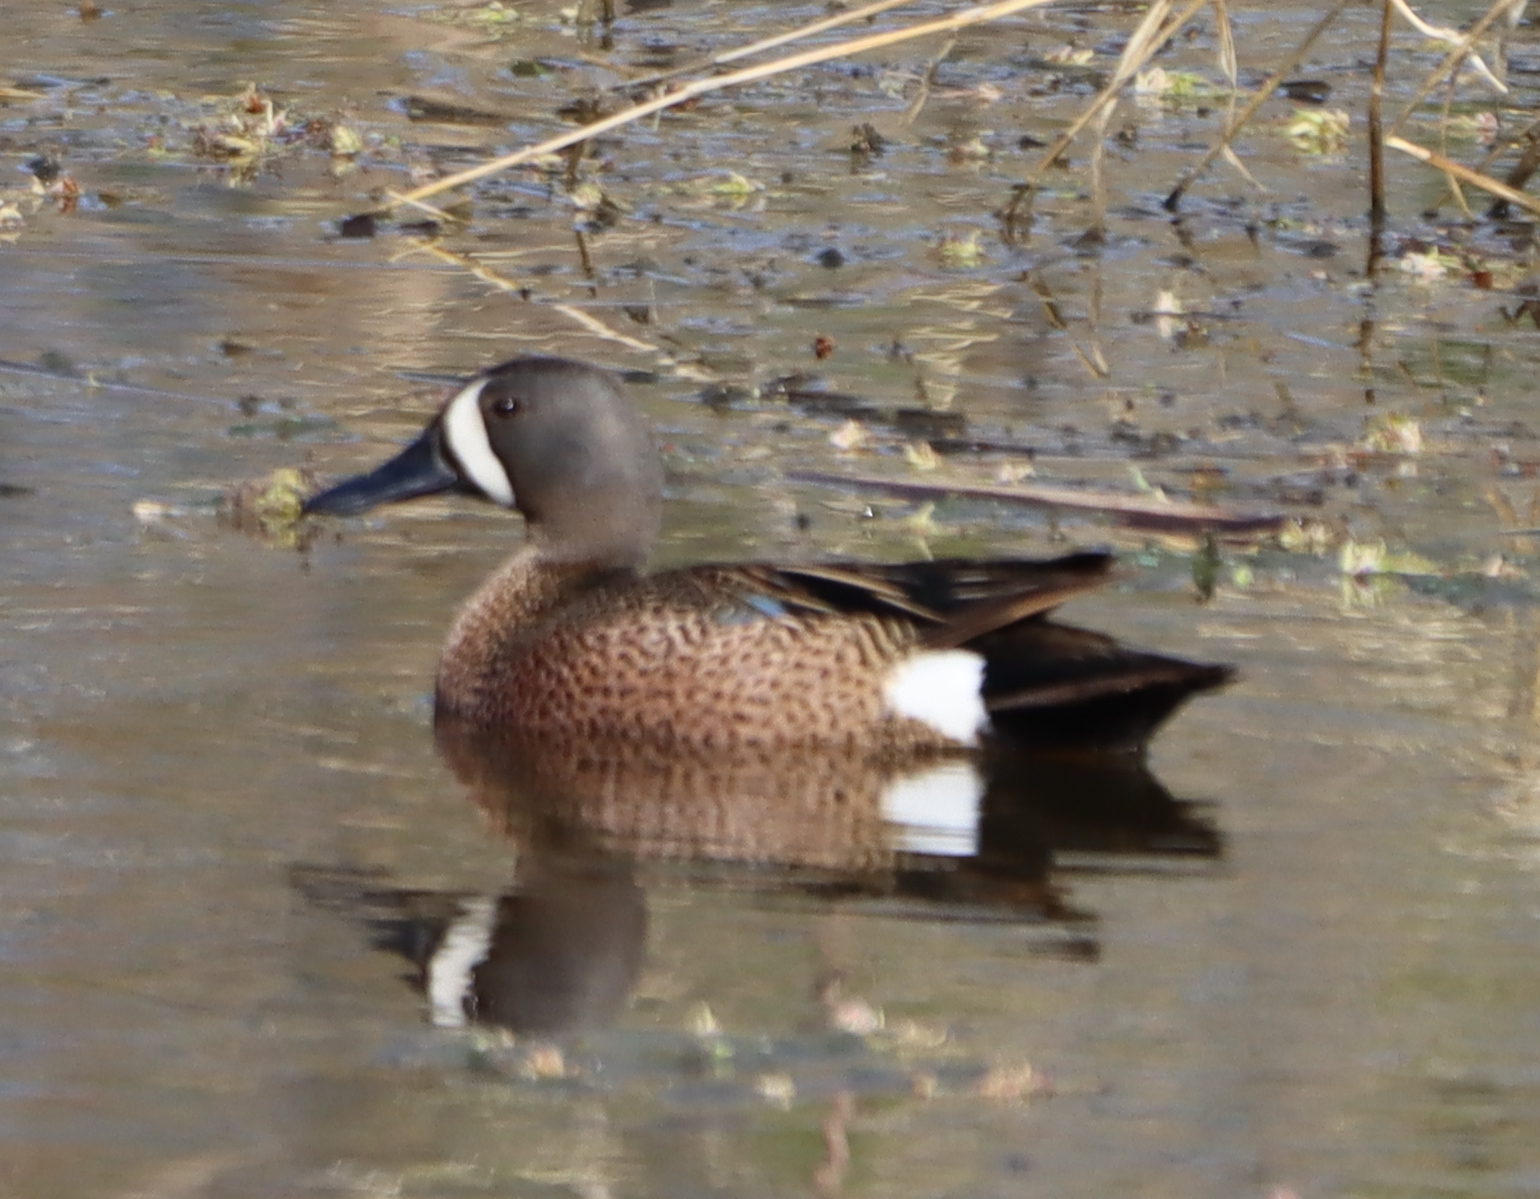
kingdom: Animalia
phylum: Chordata
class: Aves
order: Anseriformes
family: Anatidae
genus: Spatula
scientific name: Spatula discors
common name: Blue-winged teal
